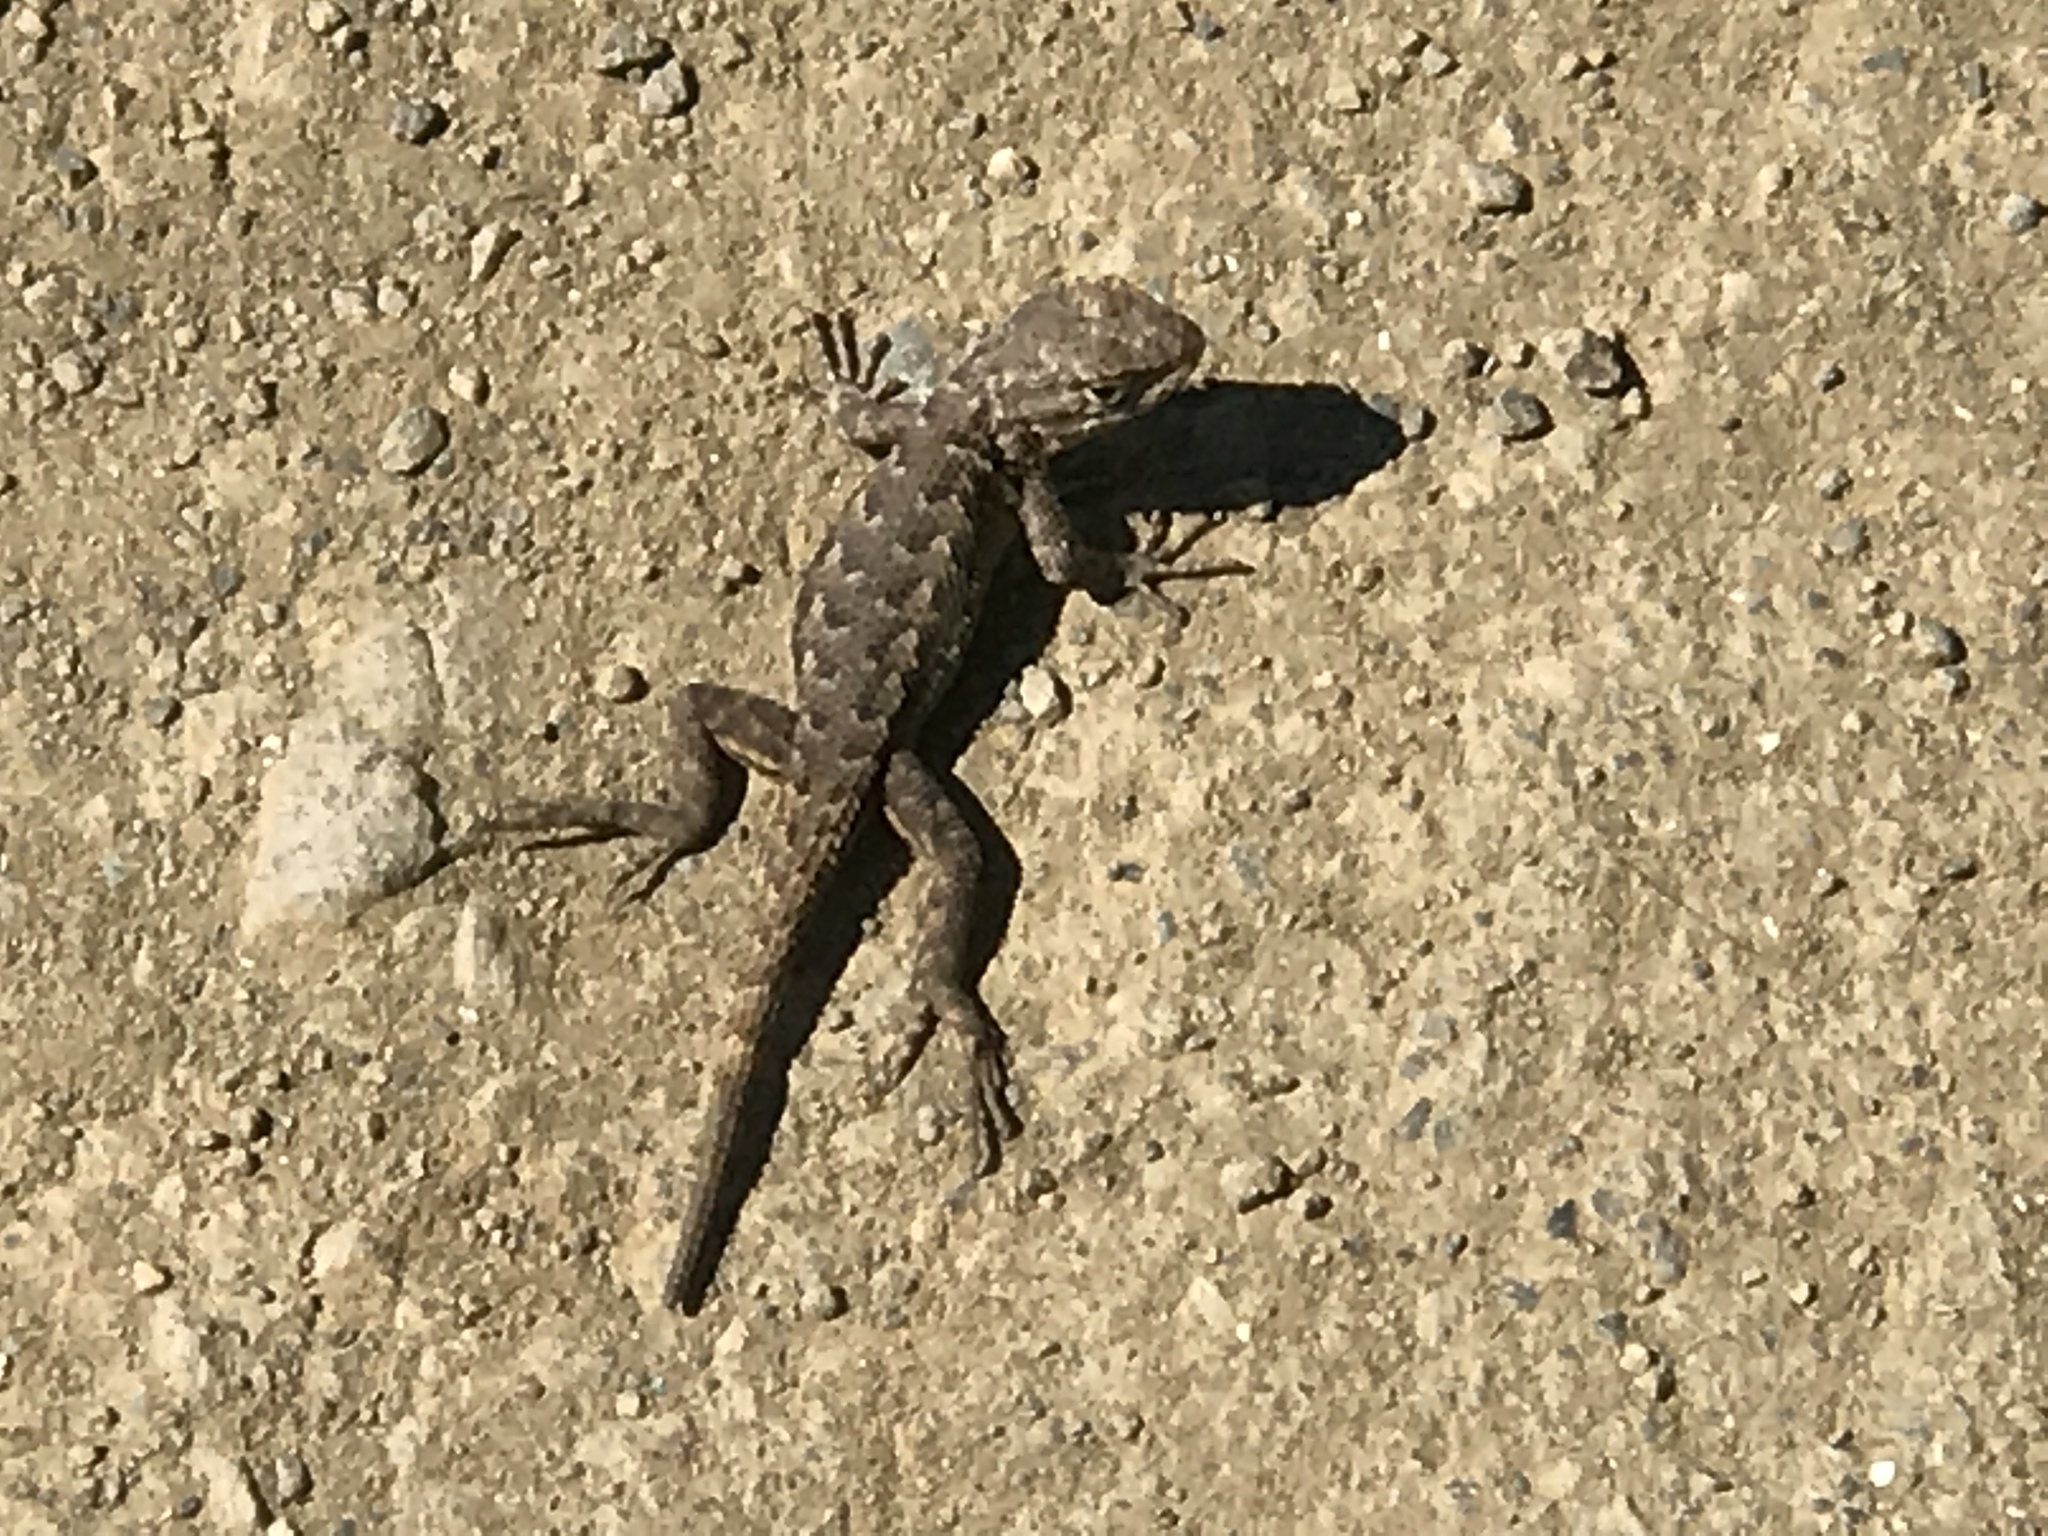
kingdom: Animalia
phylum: Chordata
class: Squamata
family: Phrynosomatidae
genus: Sceloporus
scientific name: Sceloporus occidentalis
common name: Western fence lizard
